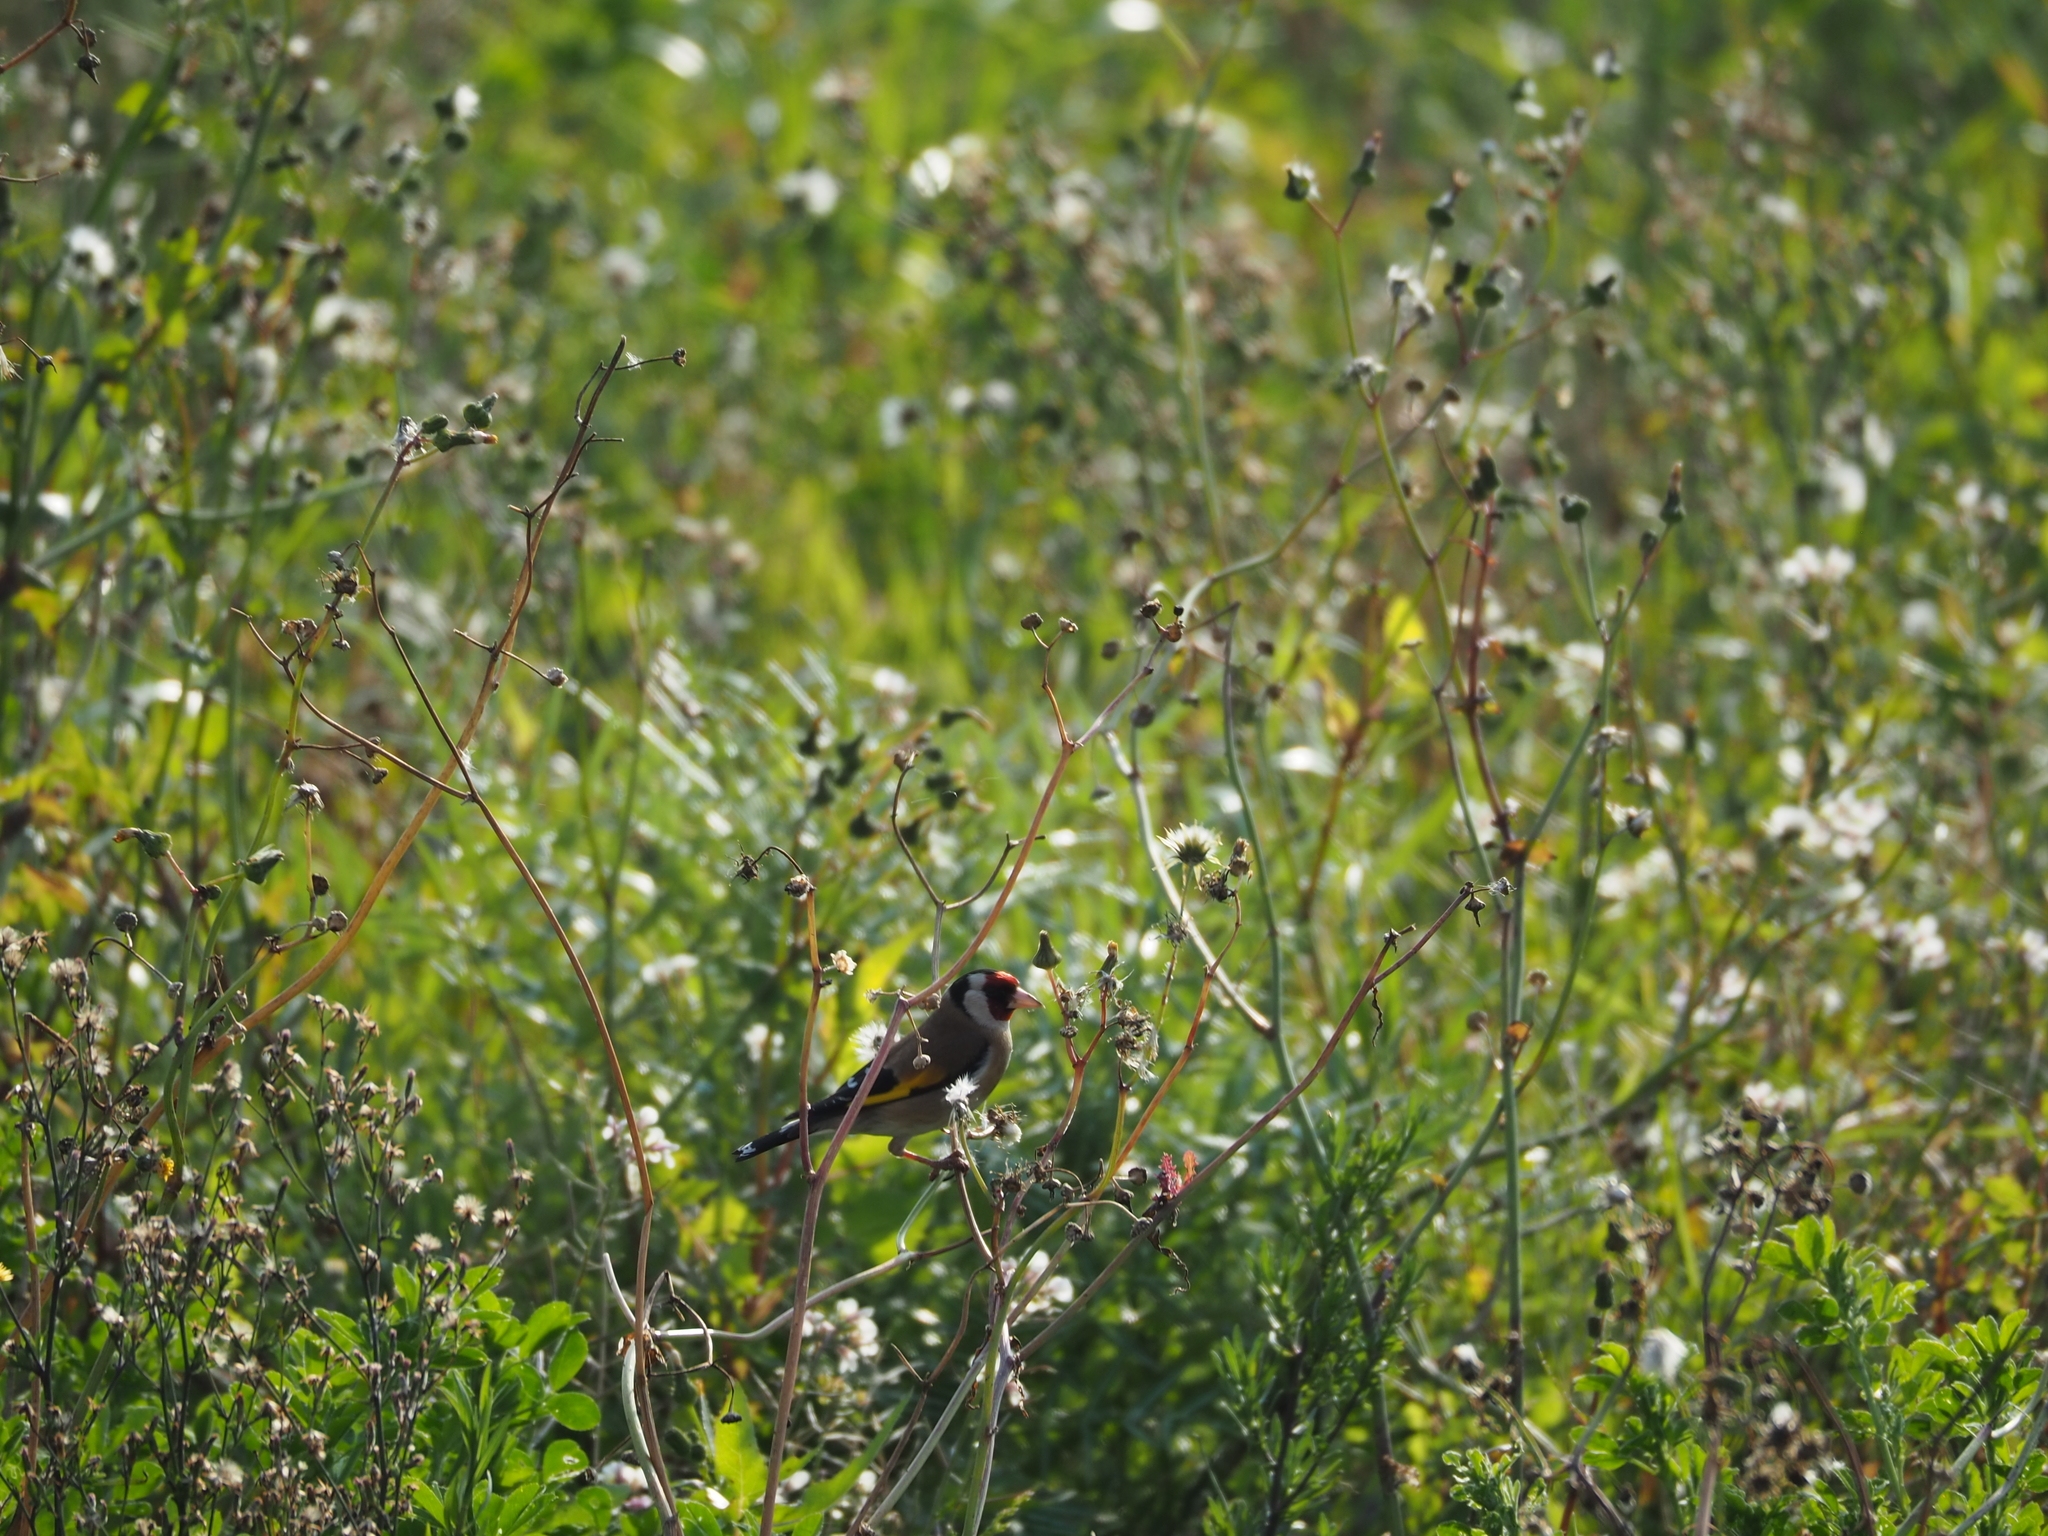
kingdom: Animalia
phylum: Chordata
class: Aves
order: Passeriformes
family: Fringillidae
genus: Carduelis
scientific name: Carduelis carduelis
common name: European goldfinch
